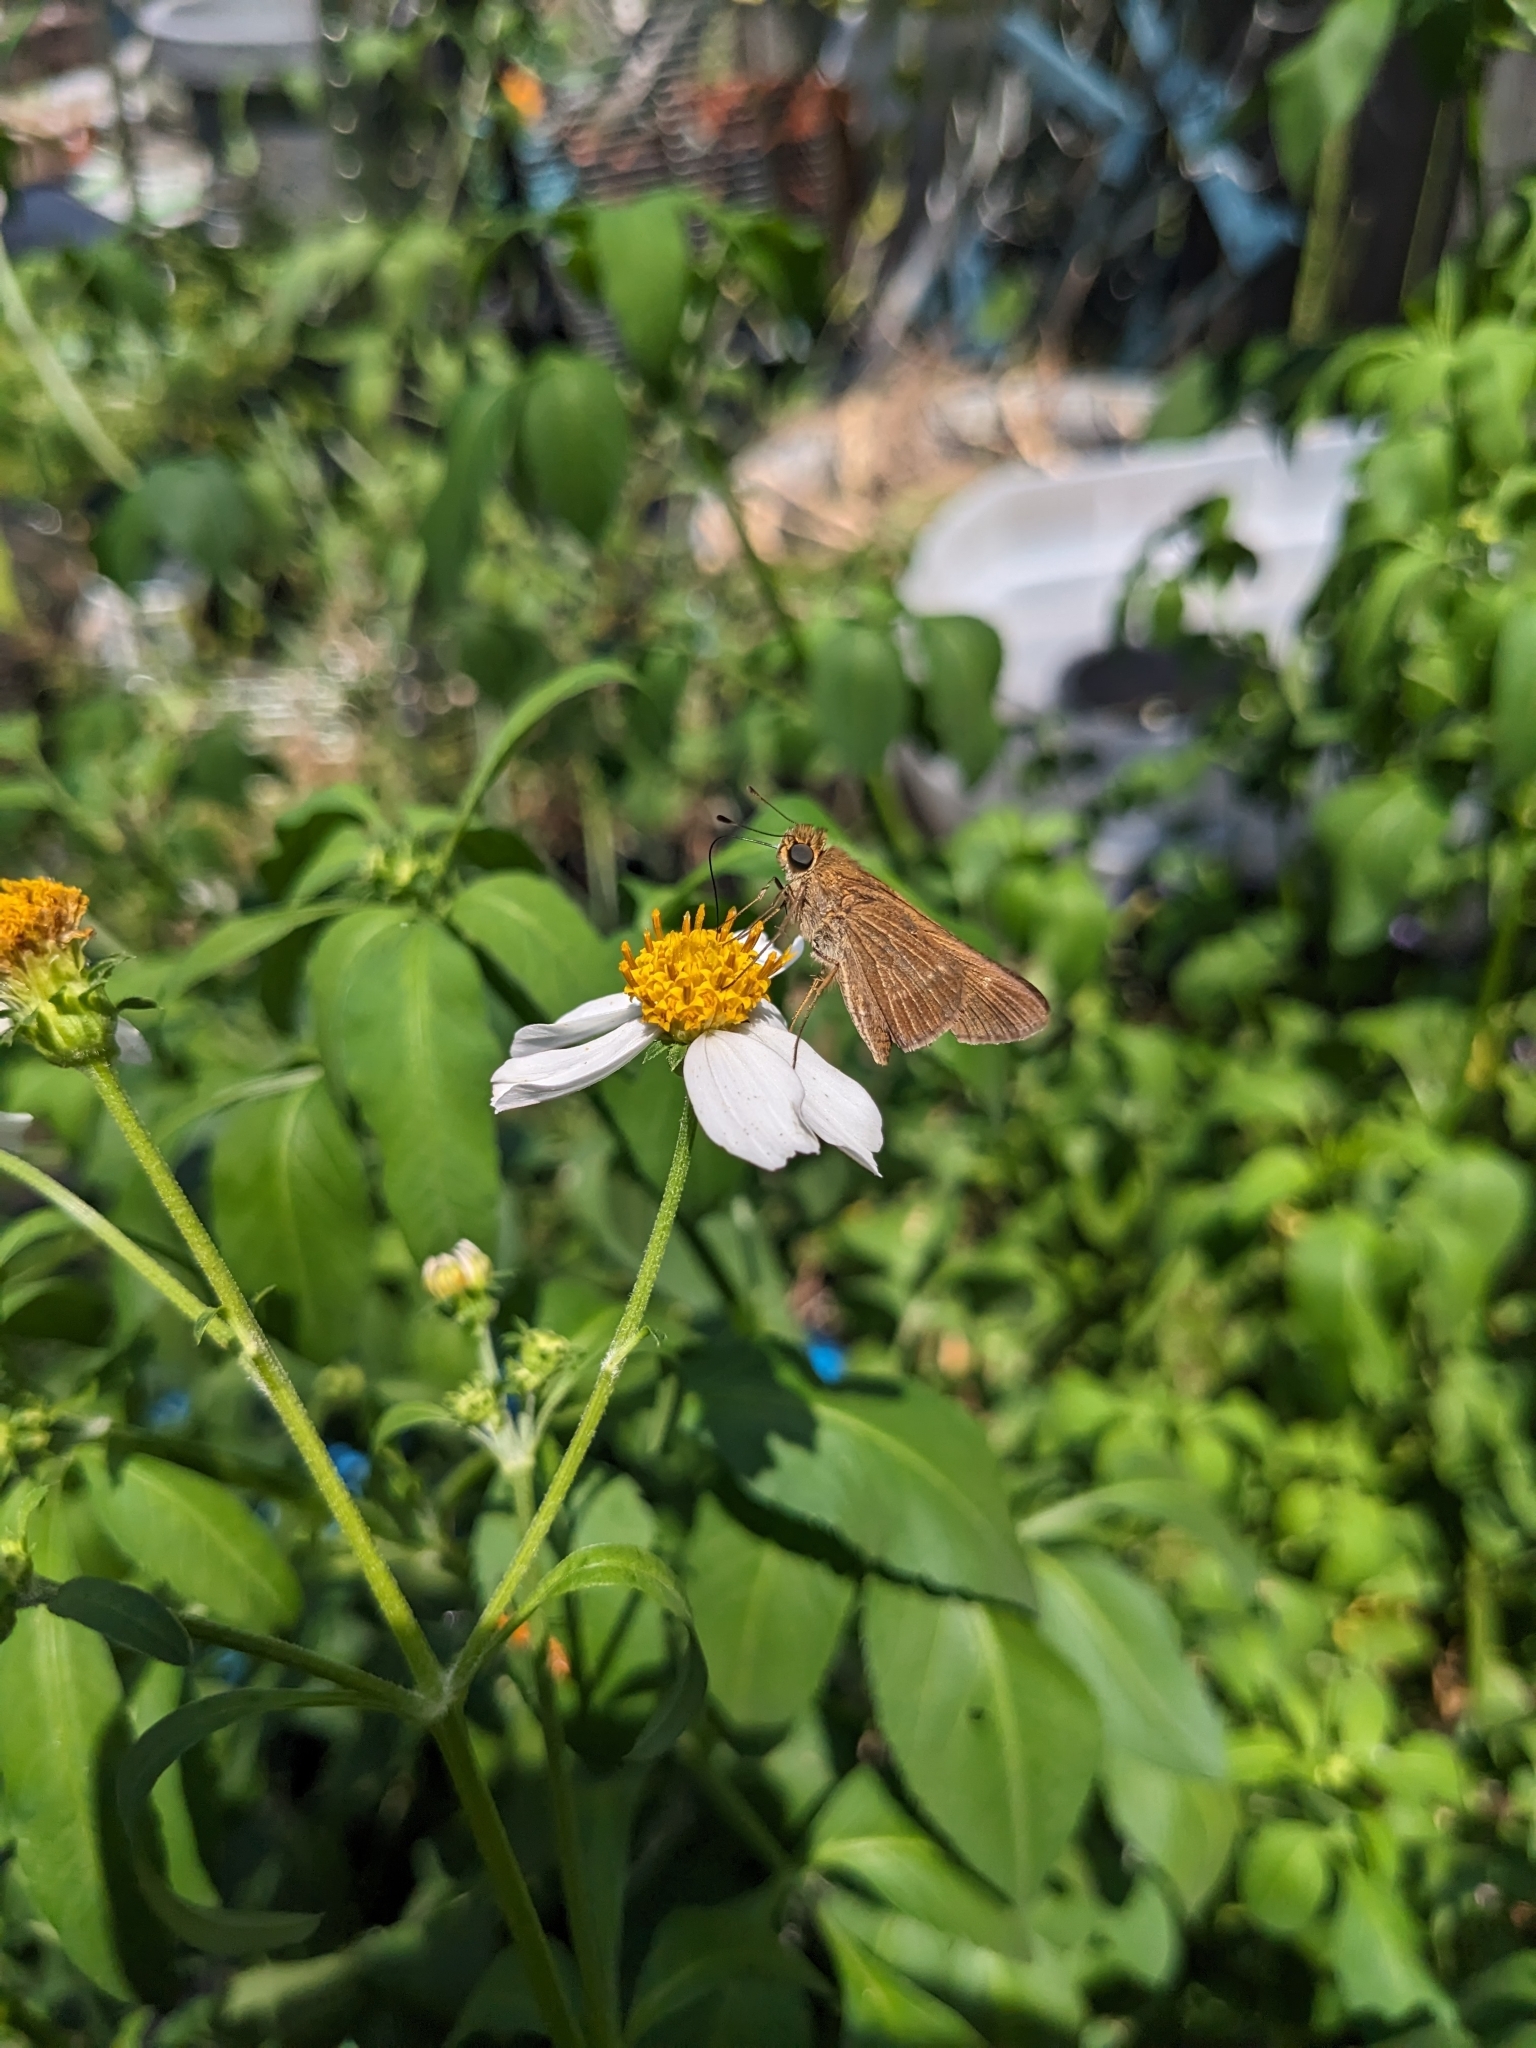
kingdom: Animalia
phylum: Arthropoda
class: Insecta
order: Lepidoptera
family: Hesperiidae
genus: Panoquina
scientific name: Panoquina ocola
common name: Ocola skipper
